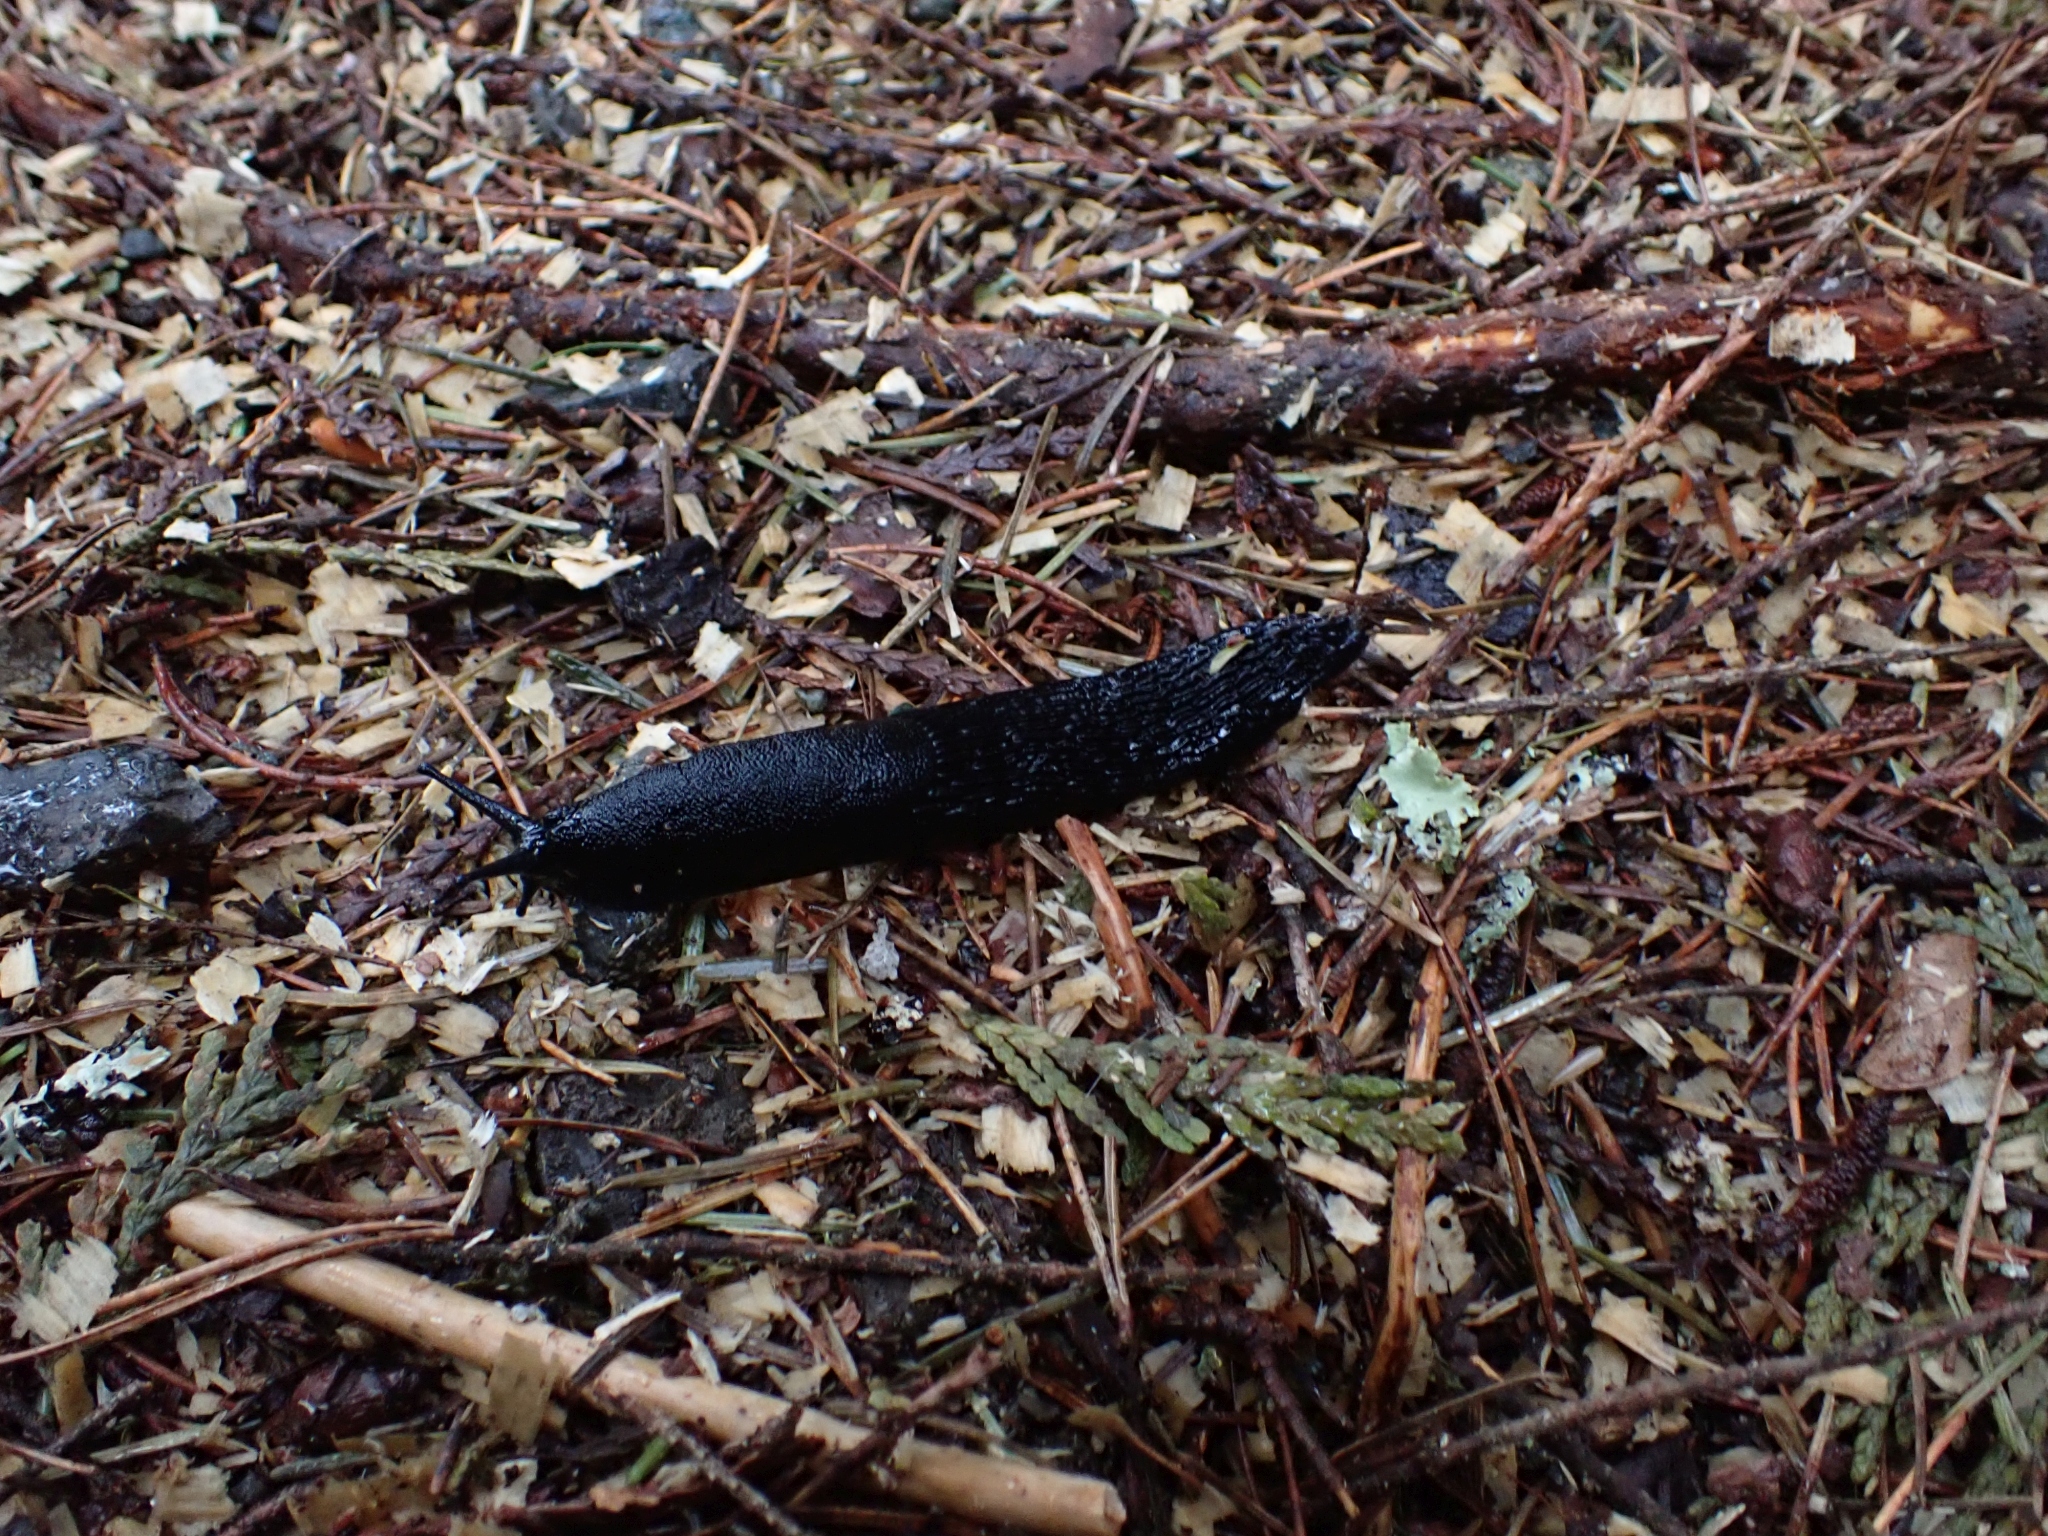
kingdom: Animalia
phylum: Mollusca
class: Gastropoda
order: Stylommatophora
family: Arionidae
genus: Arion
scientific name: Arion
